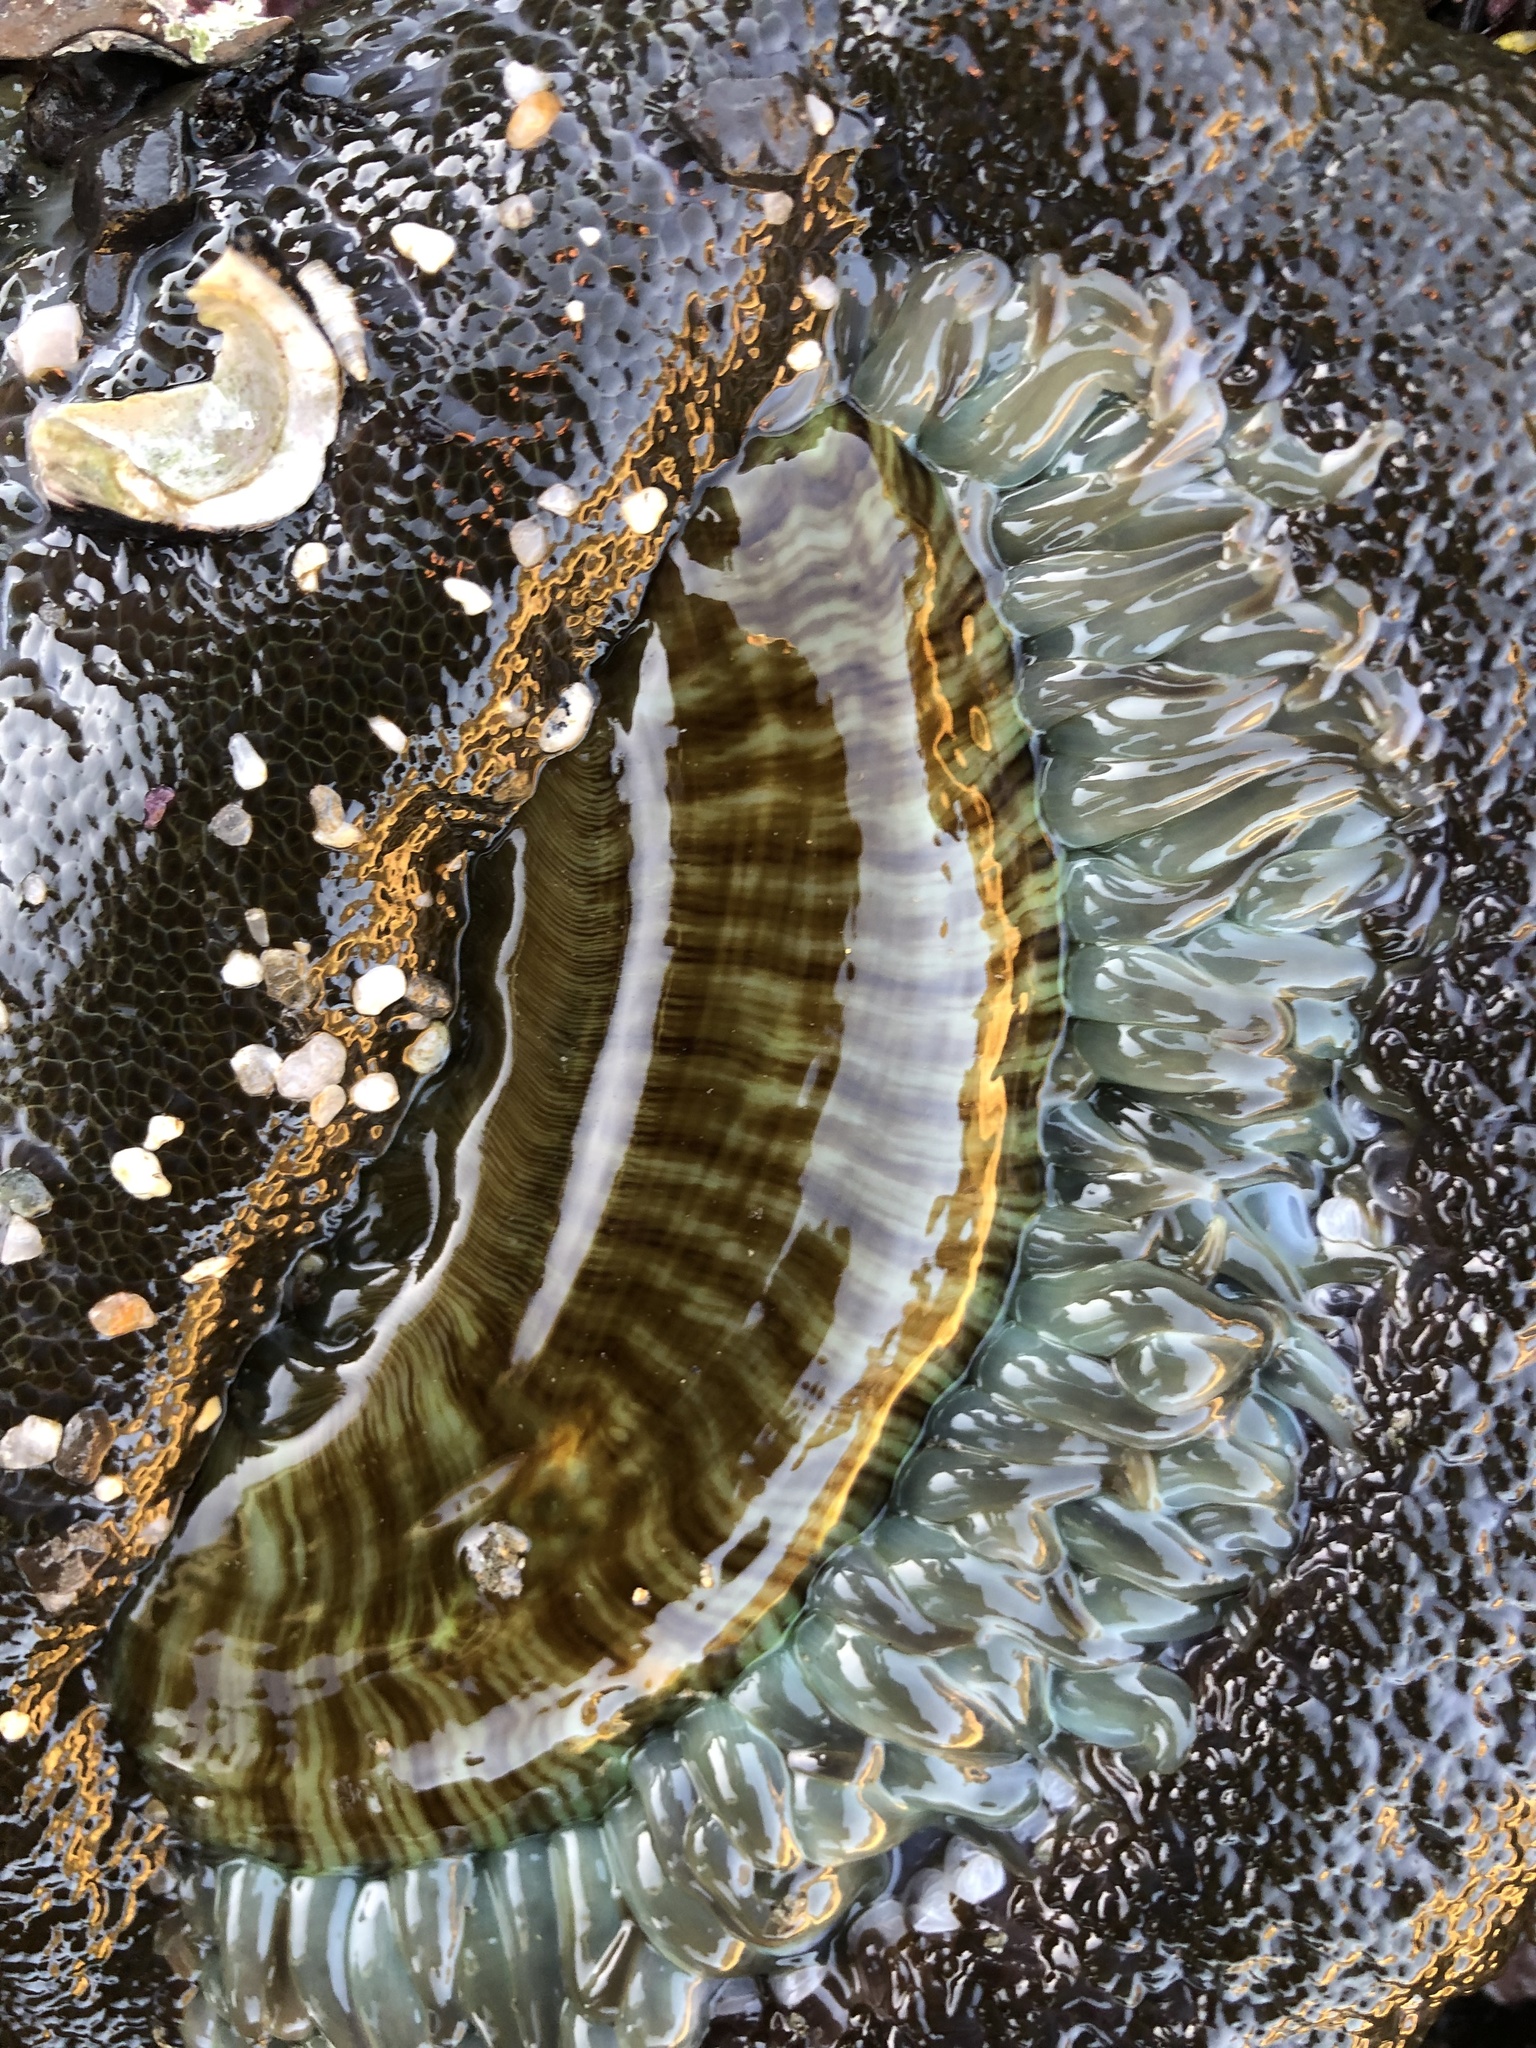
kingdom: Animalia
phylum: Cnidaria
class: Anthozoa
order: Actiniaria
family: Actiniidae
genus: Anthopleura
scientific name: Anthopleura sola
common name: Sun anemone
